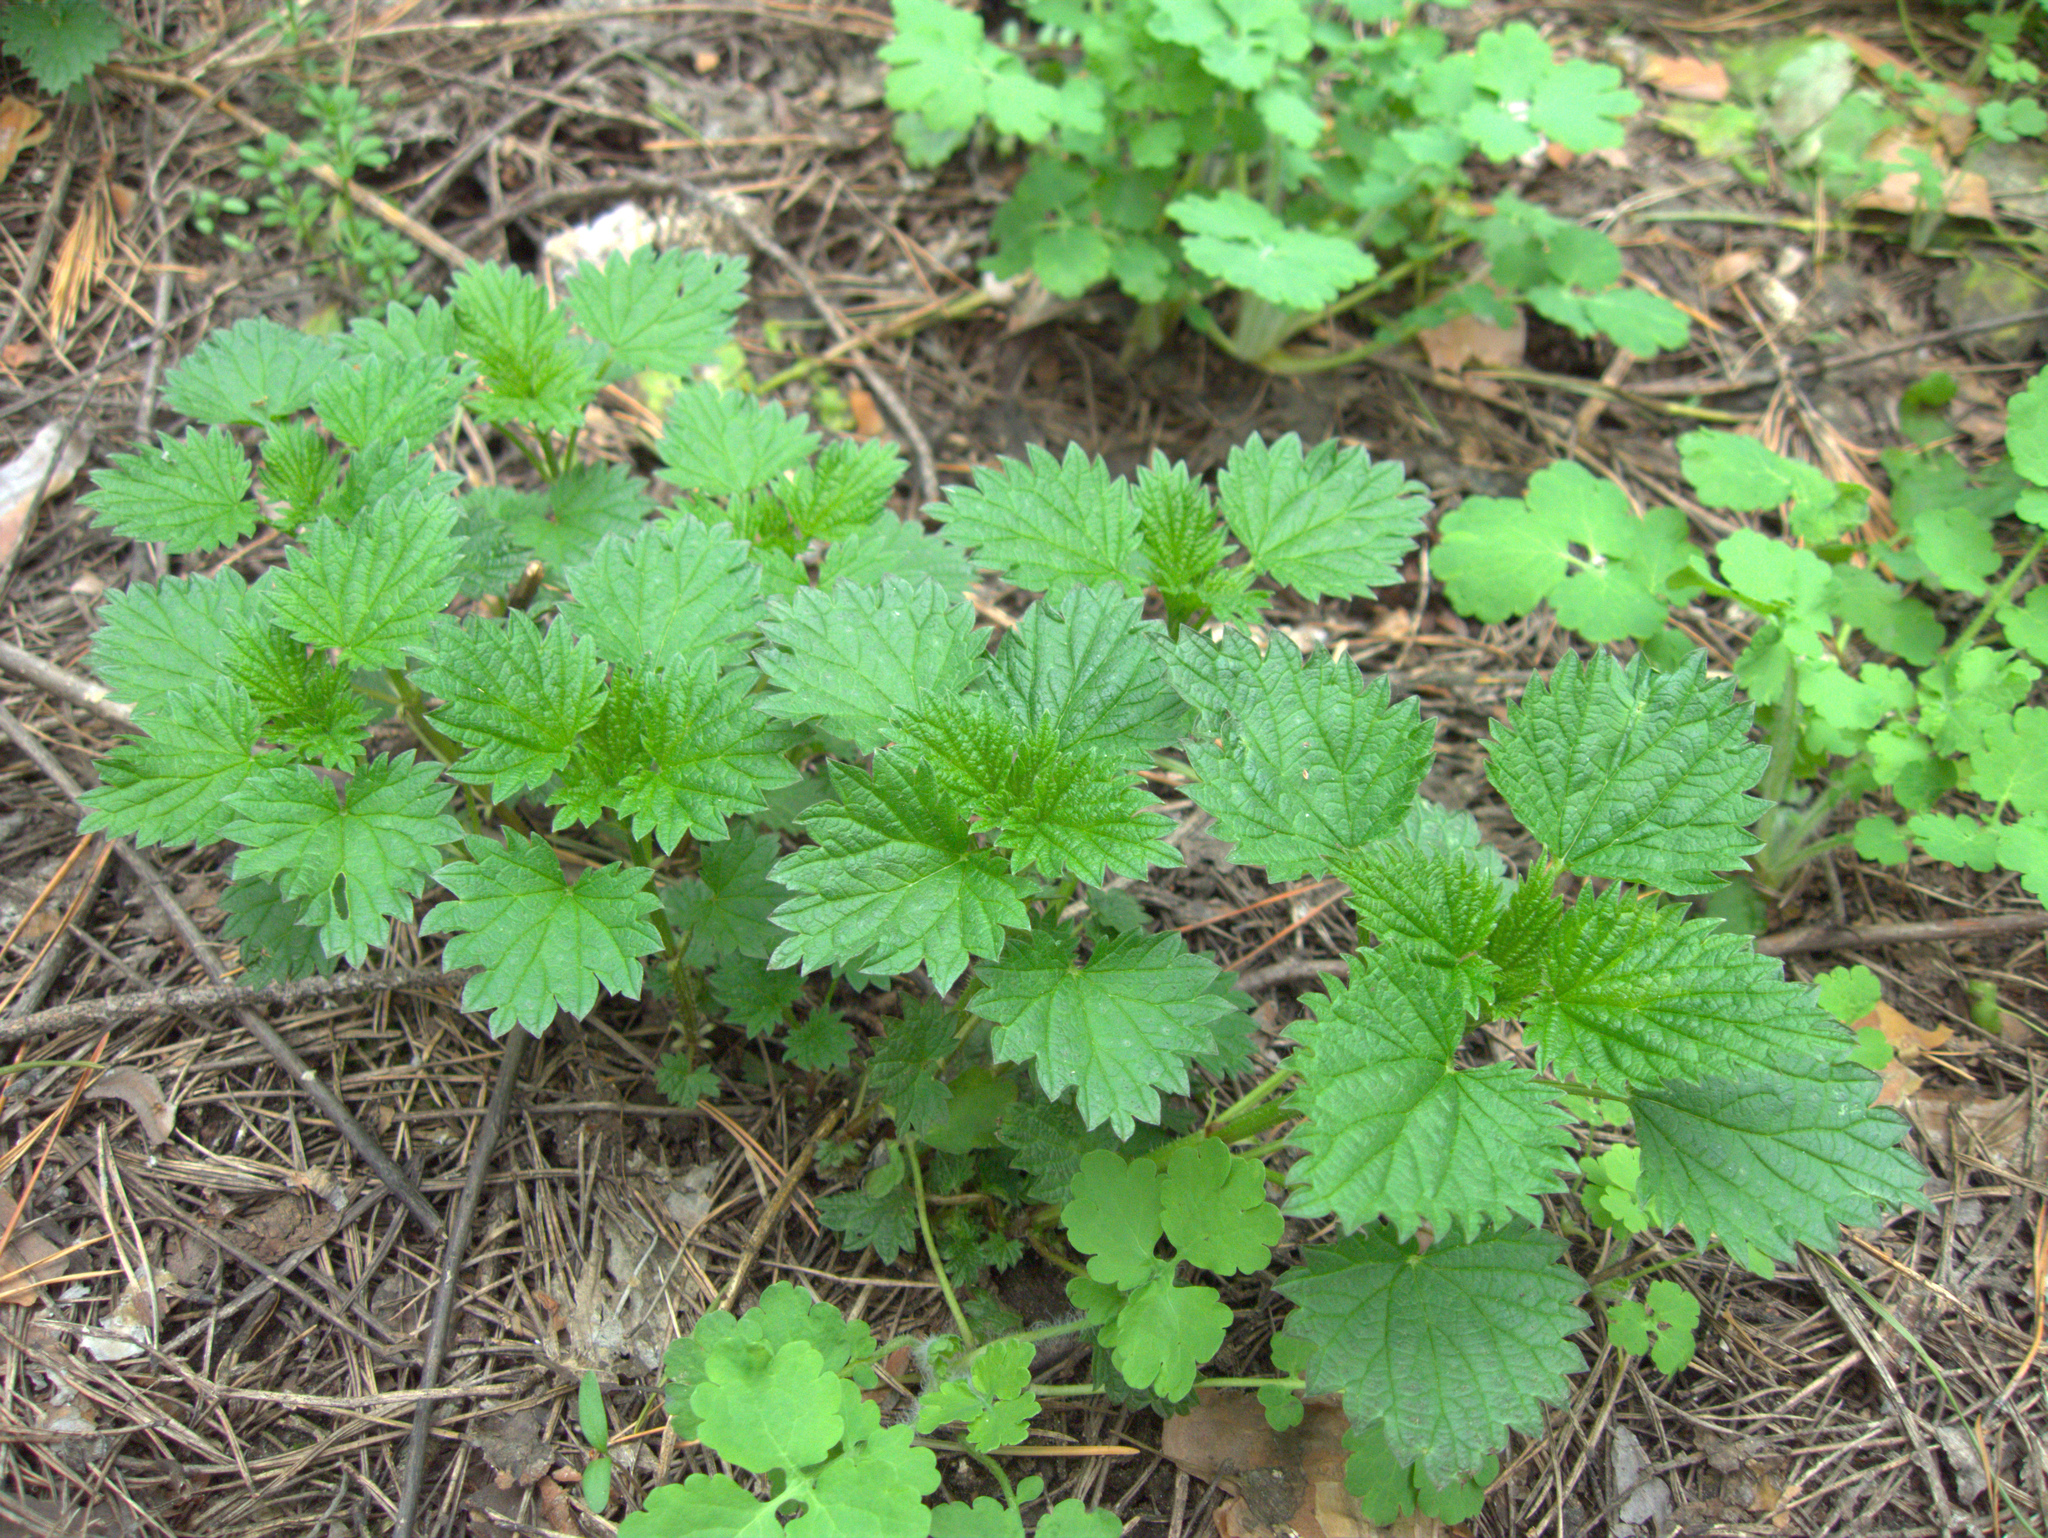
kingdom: Plantae
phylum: Tracheophyta
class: Magnoliopsida
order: Rosales
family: Urticaceae
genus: Urtica
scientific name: Urtica dioica
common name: Common nettle
